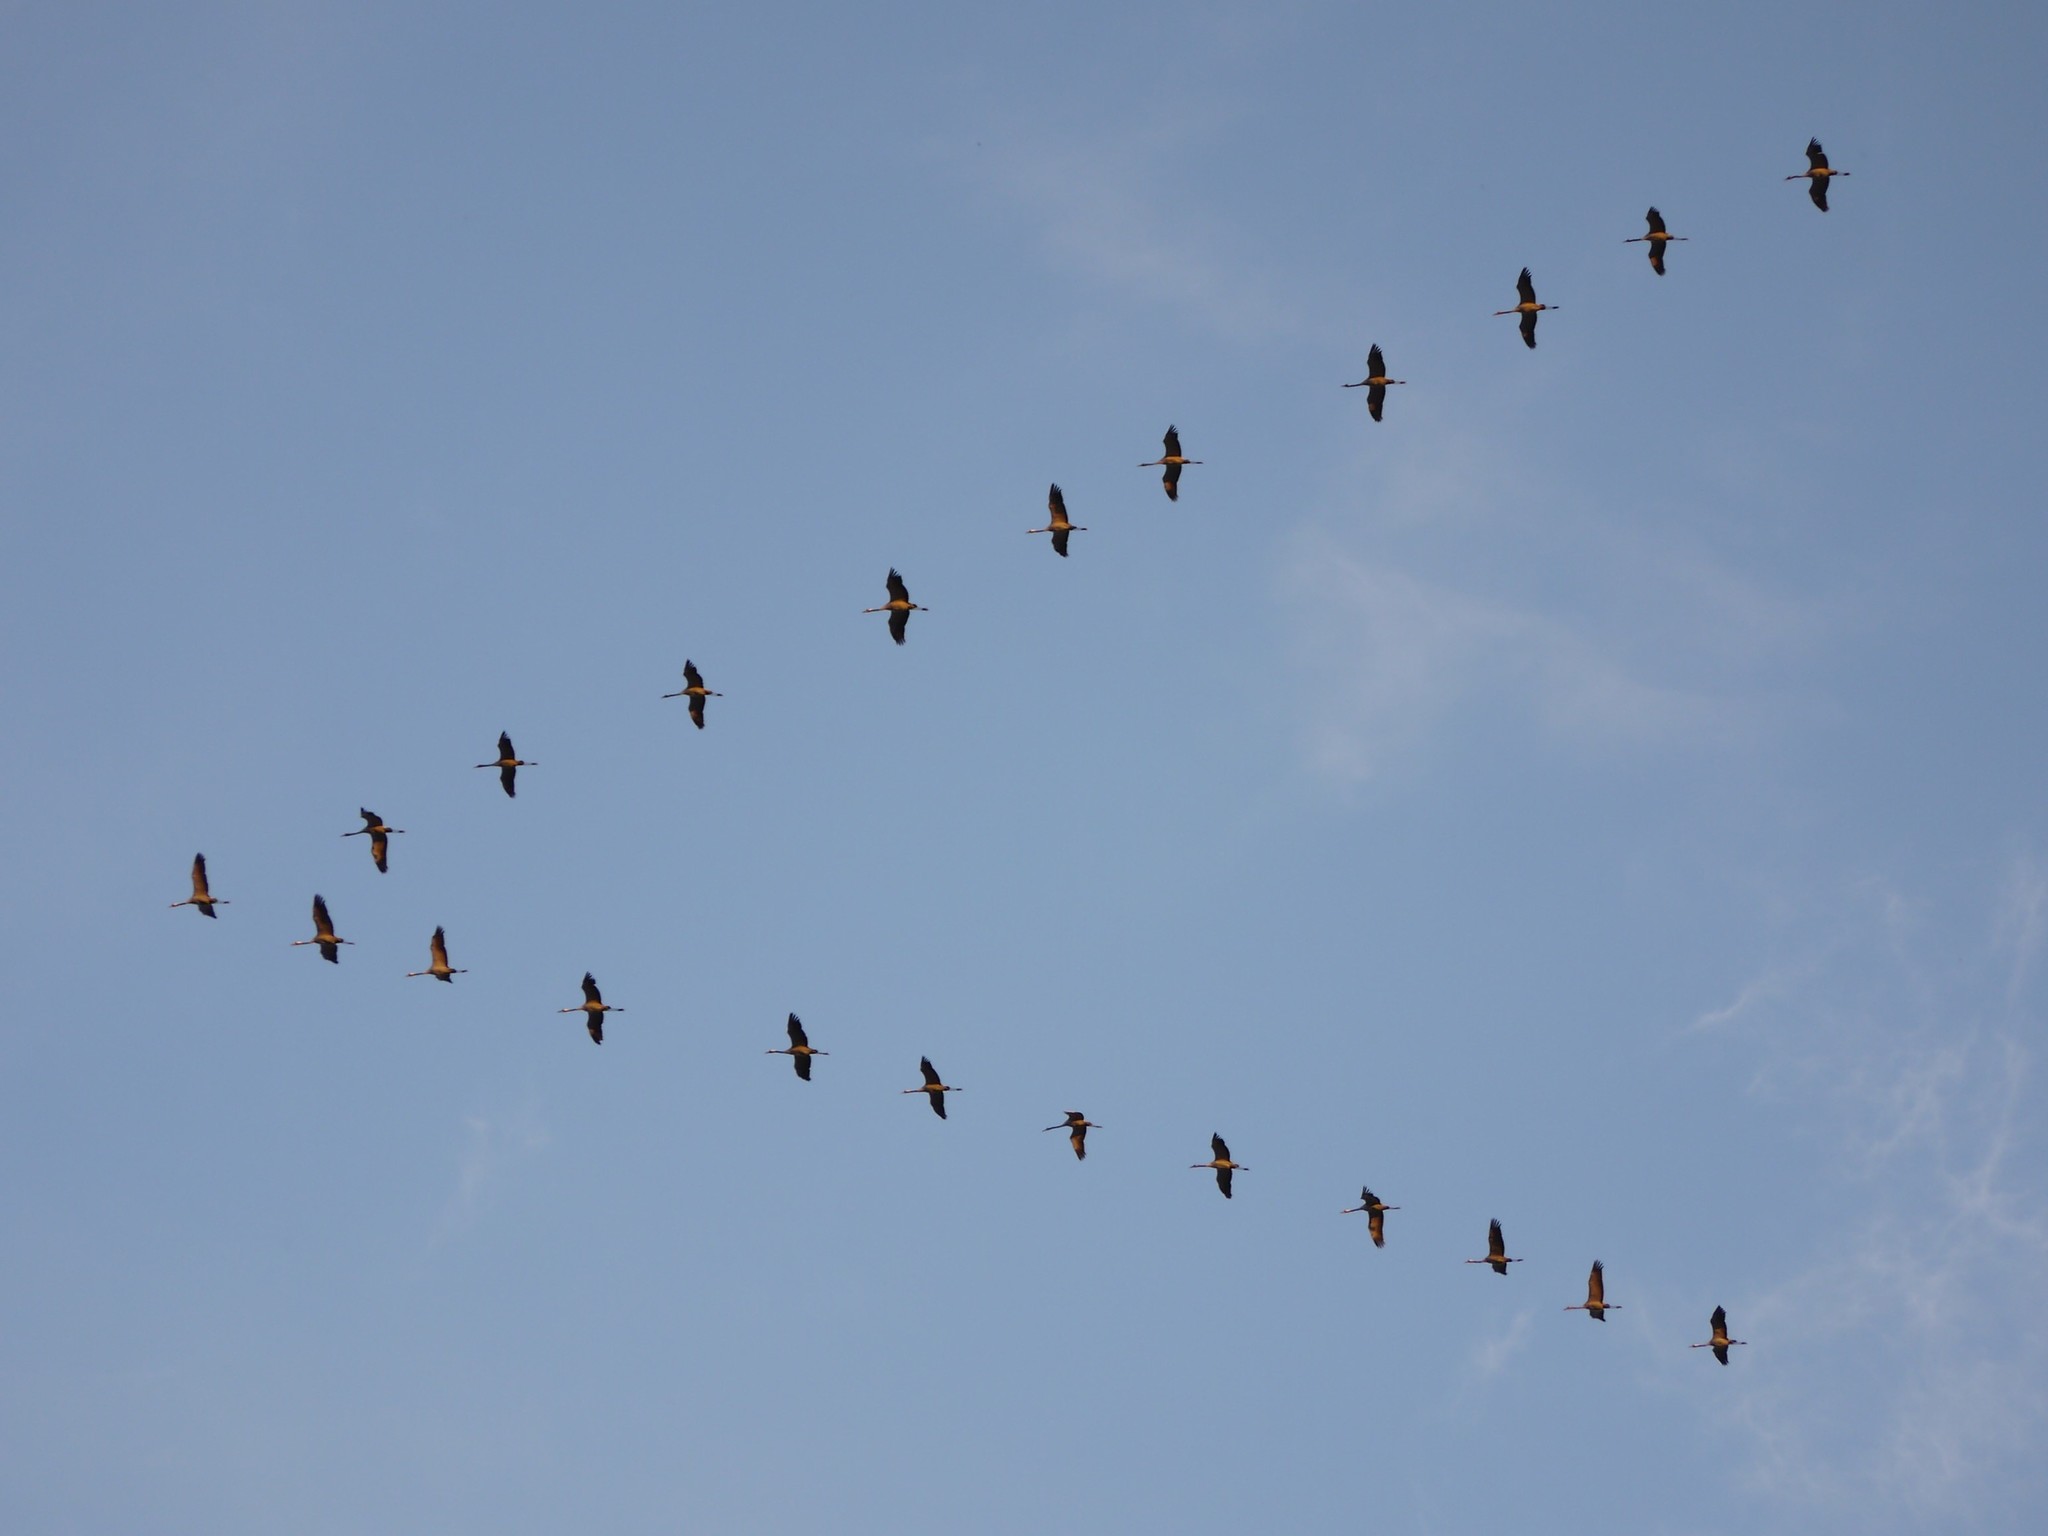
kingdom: Animalia
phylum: Chordata
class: Aves
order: Gruiformes
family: Gruidae
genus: Grus
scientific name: Grus grus
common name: Common crane
